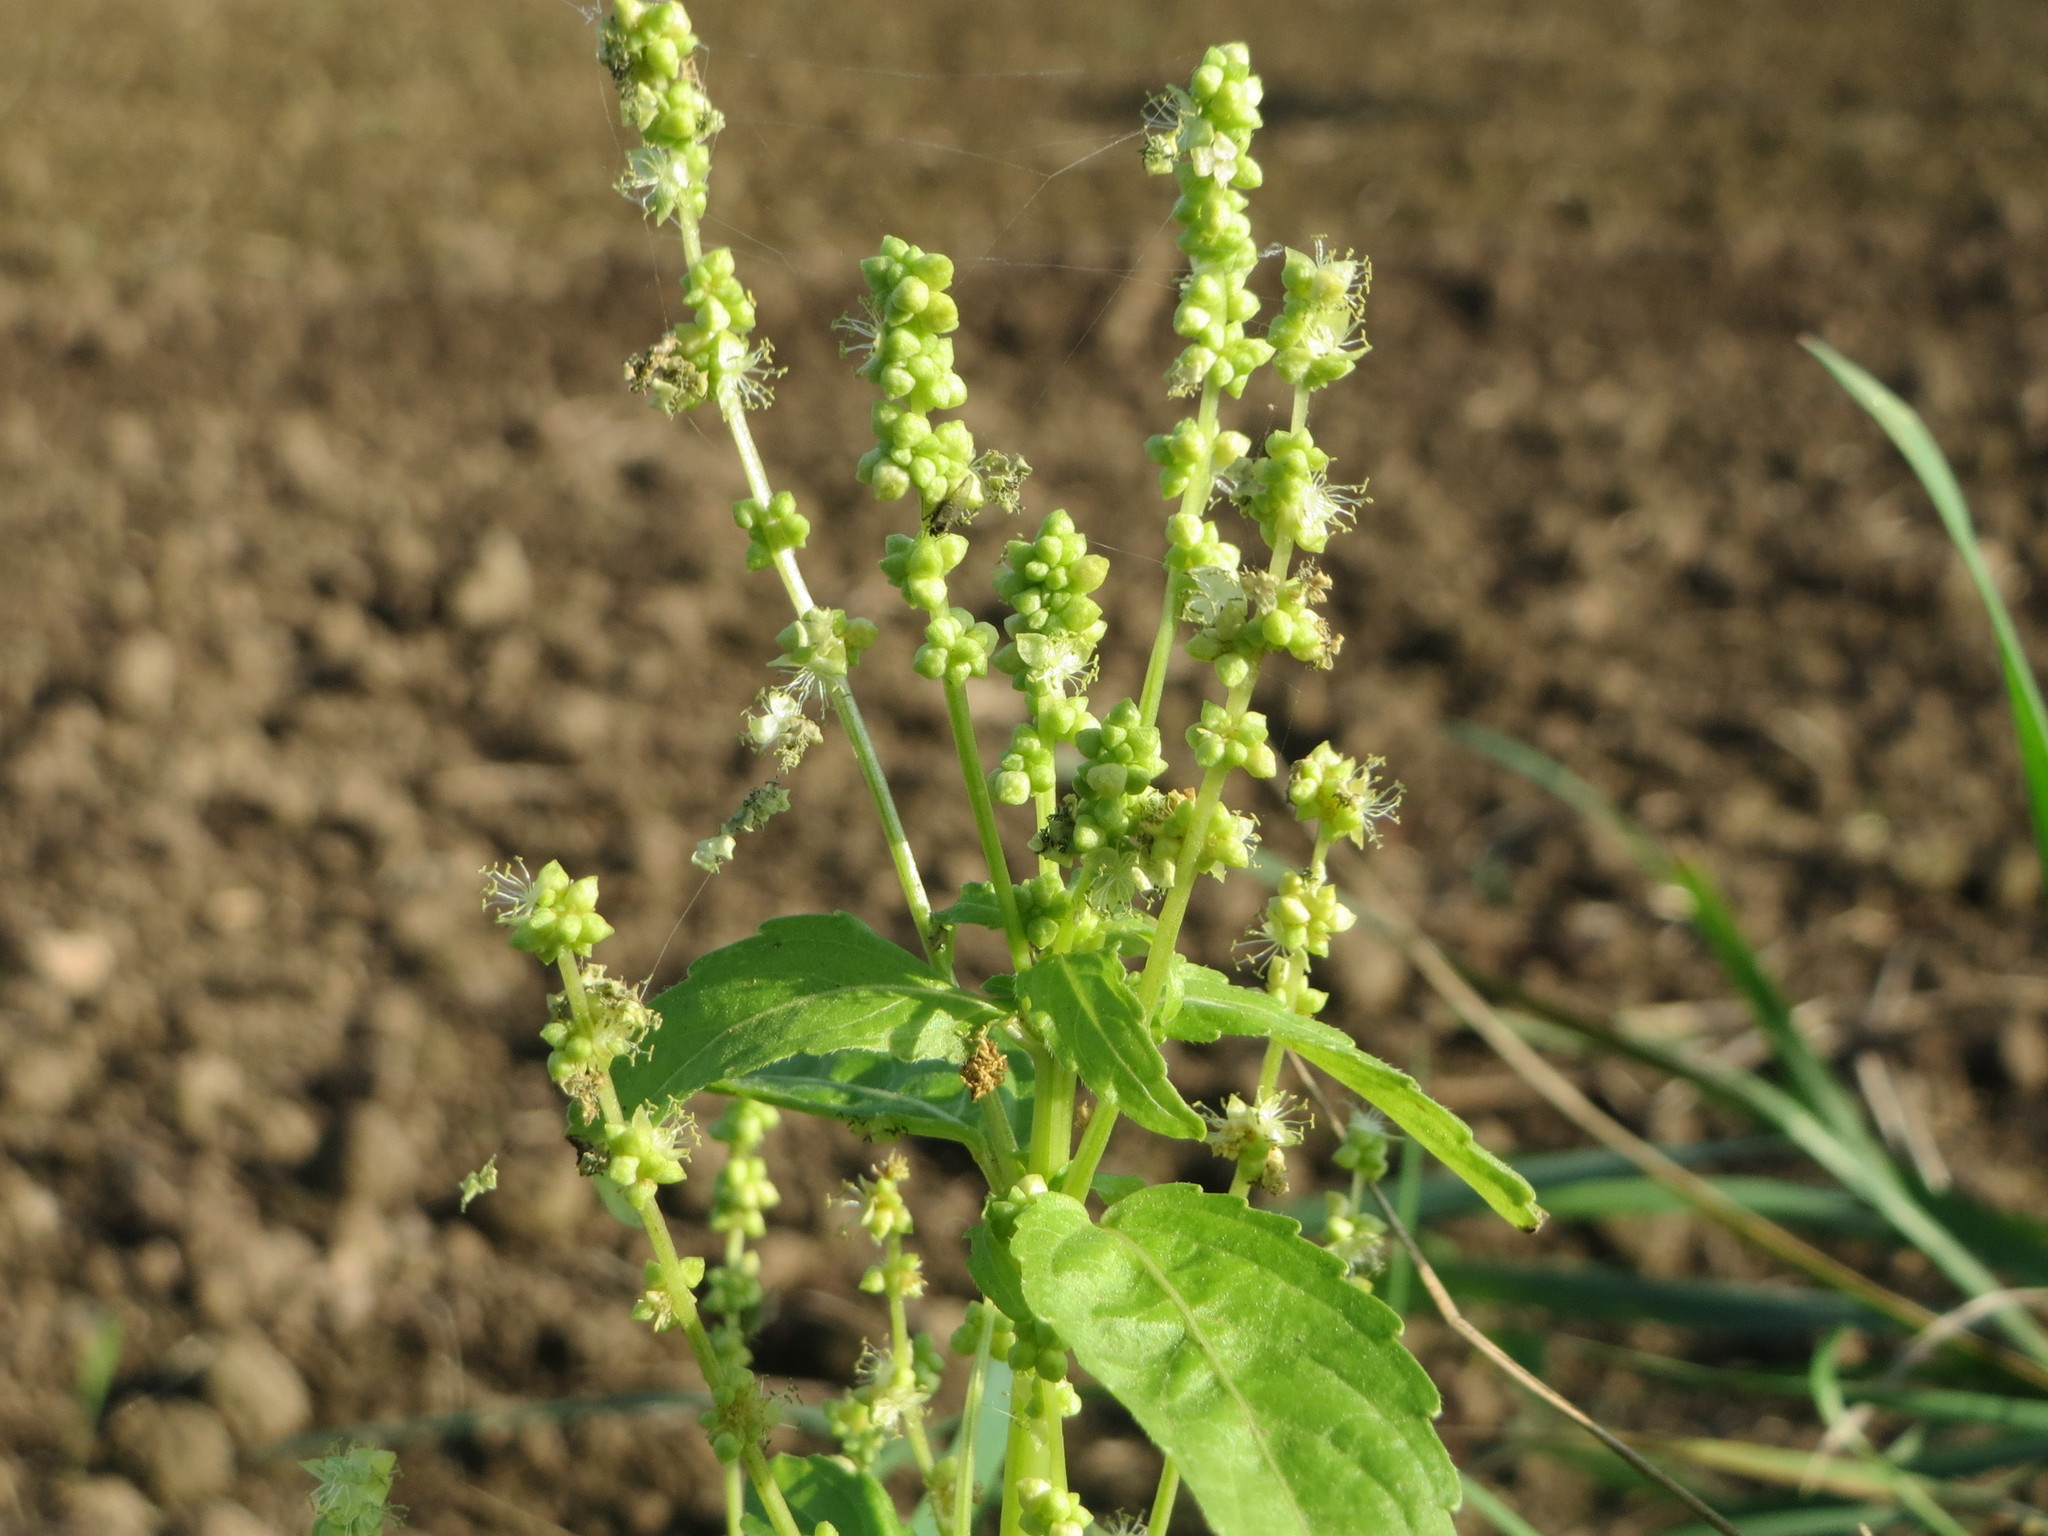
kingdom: Plantae
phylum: Tracheophyta
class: Magnoliopsida
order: Malpighiales
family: Euphorbiaceae
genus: Mercurialis
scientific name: Mercurialis annua
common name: Annual mercury
